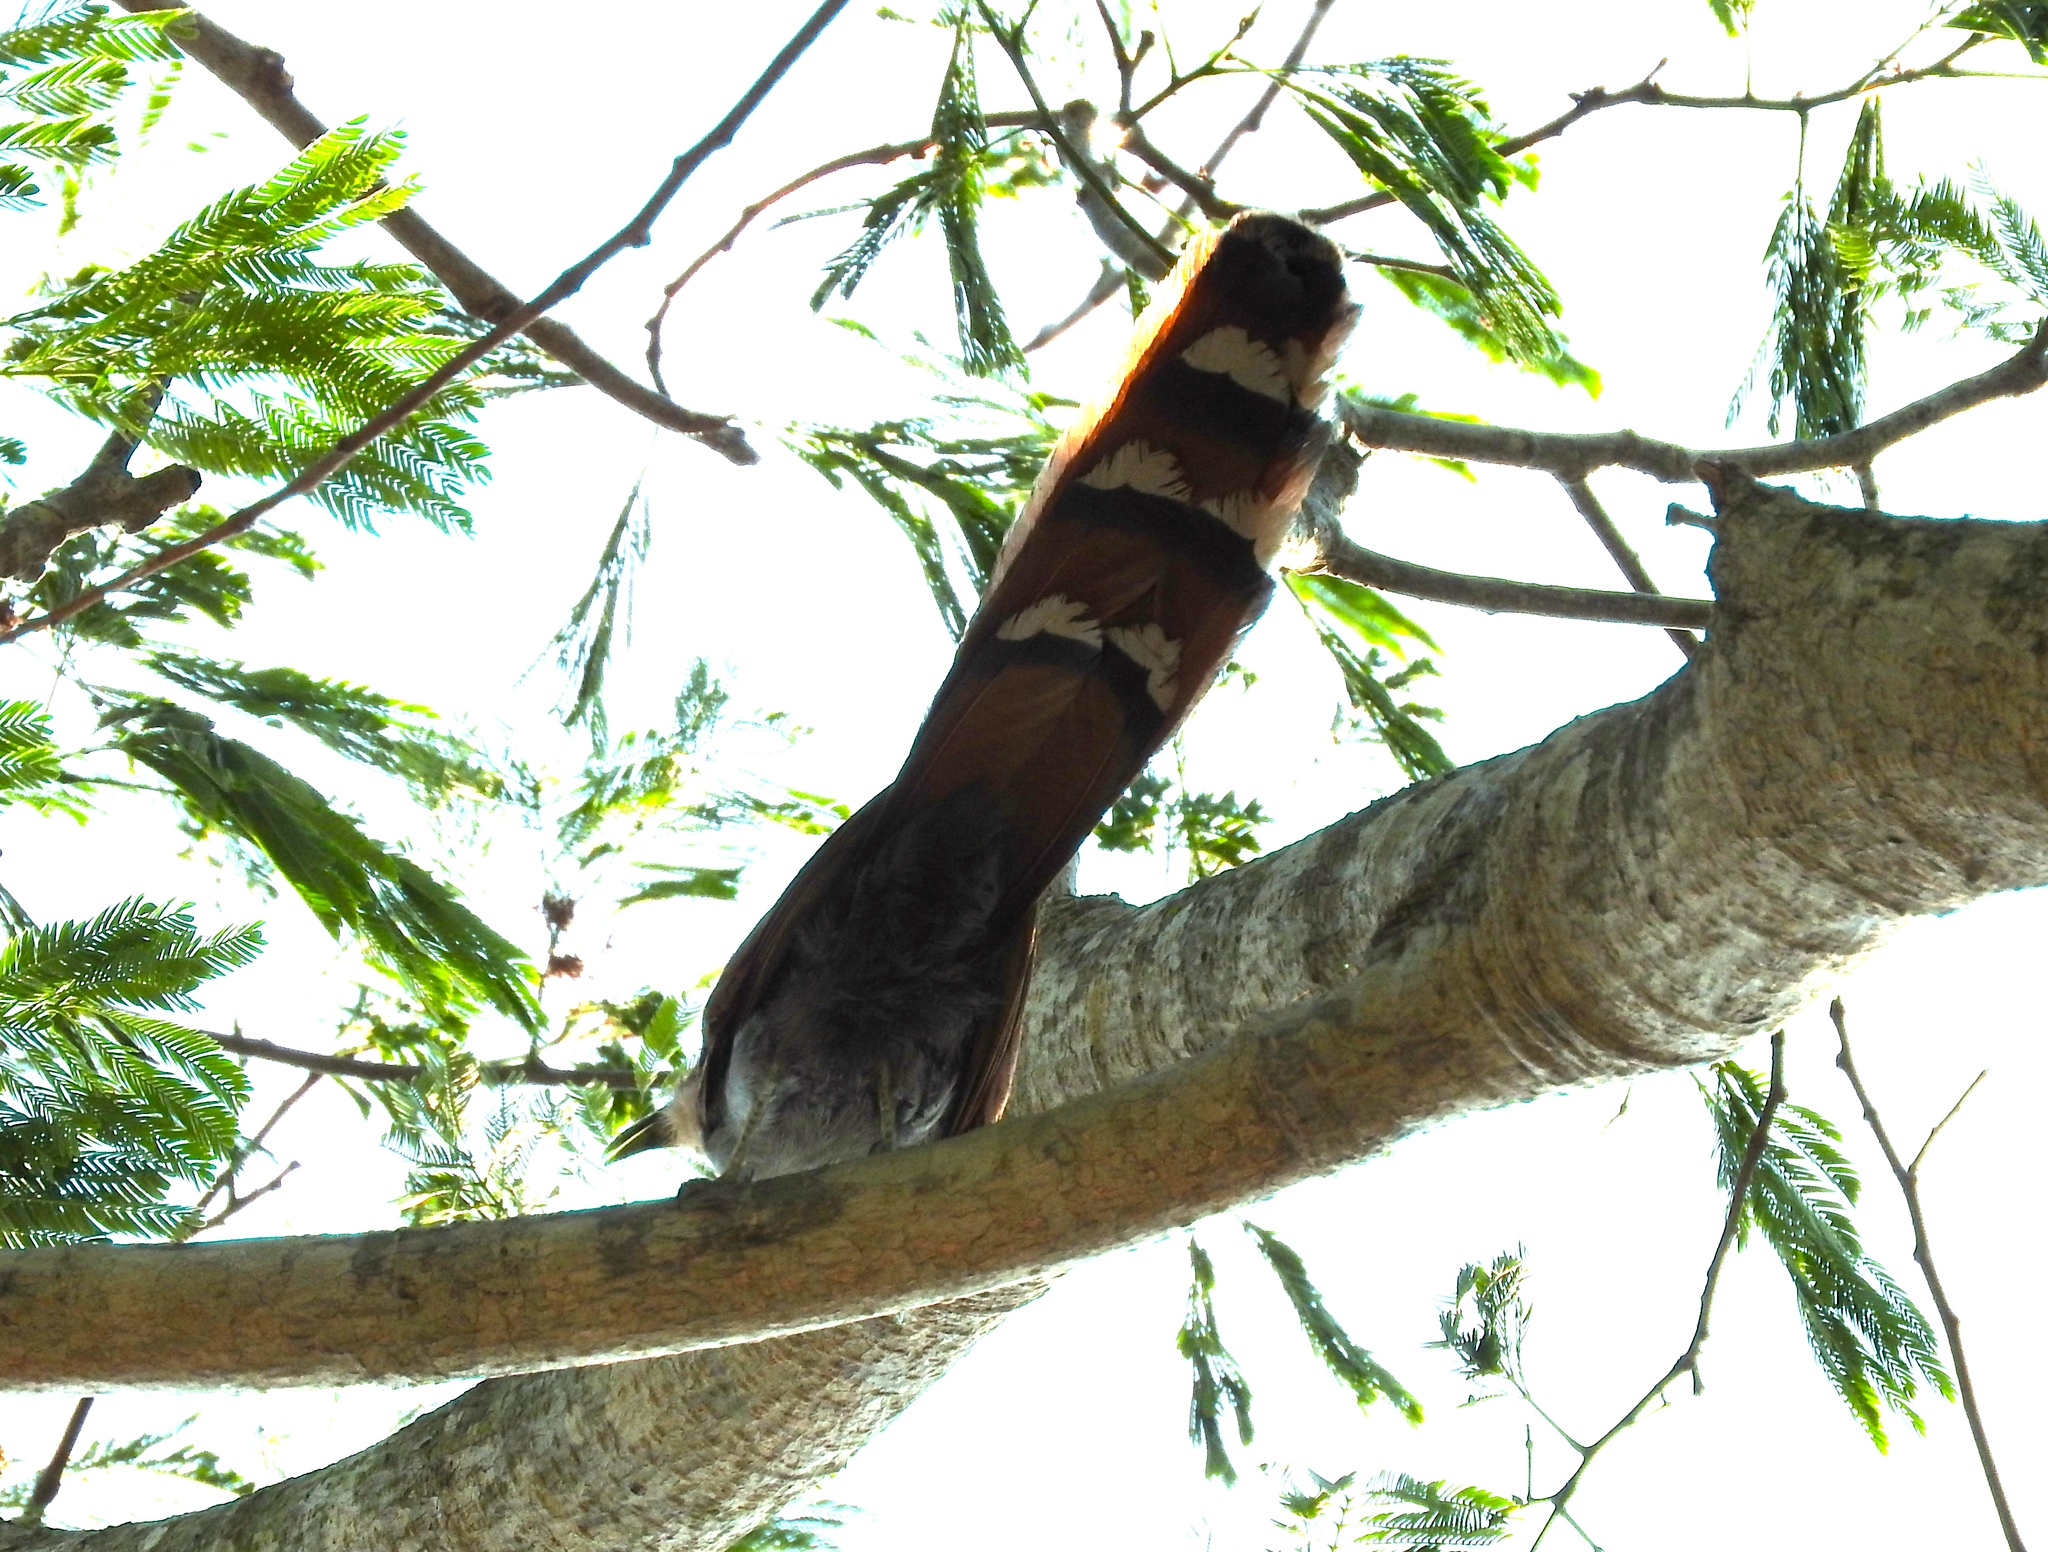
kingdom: Animalia
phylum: Chordata
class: Aves
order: Cuculiformes
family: Cuculidae
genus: Piaya
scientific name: Piaya cayana
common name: Squirrel cuckoo
